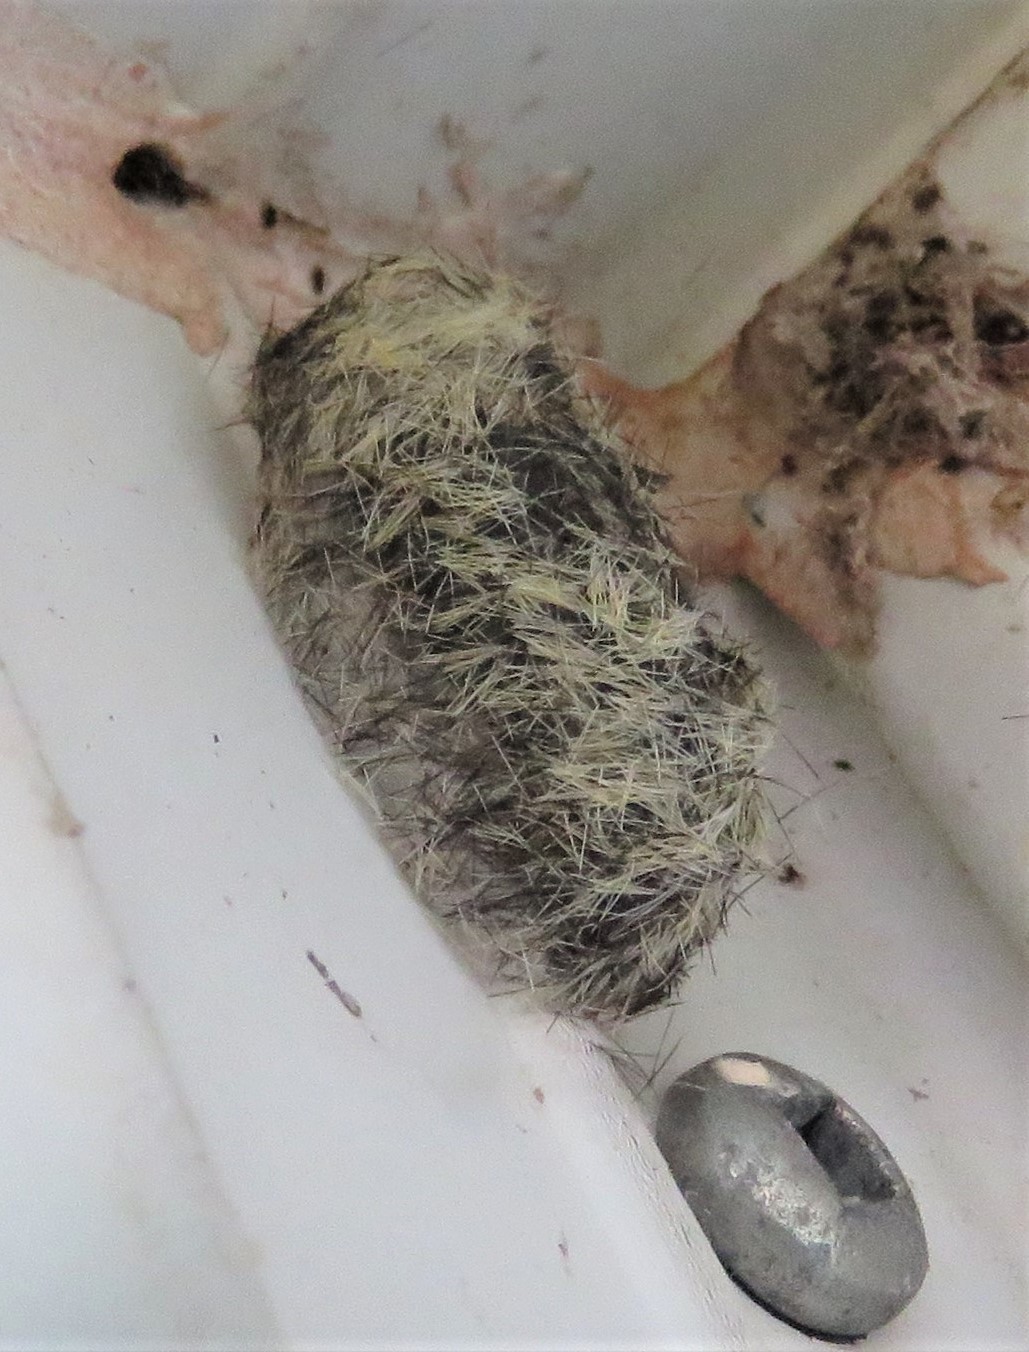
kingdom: Animalia
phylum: Arthropoda
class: Insecta
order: Lepidoptera
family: Erebidae
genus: Ctenucha
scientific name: Ctenucha virginica
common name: Virginia ctenucha moth
